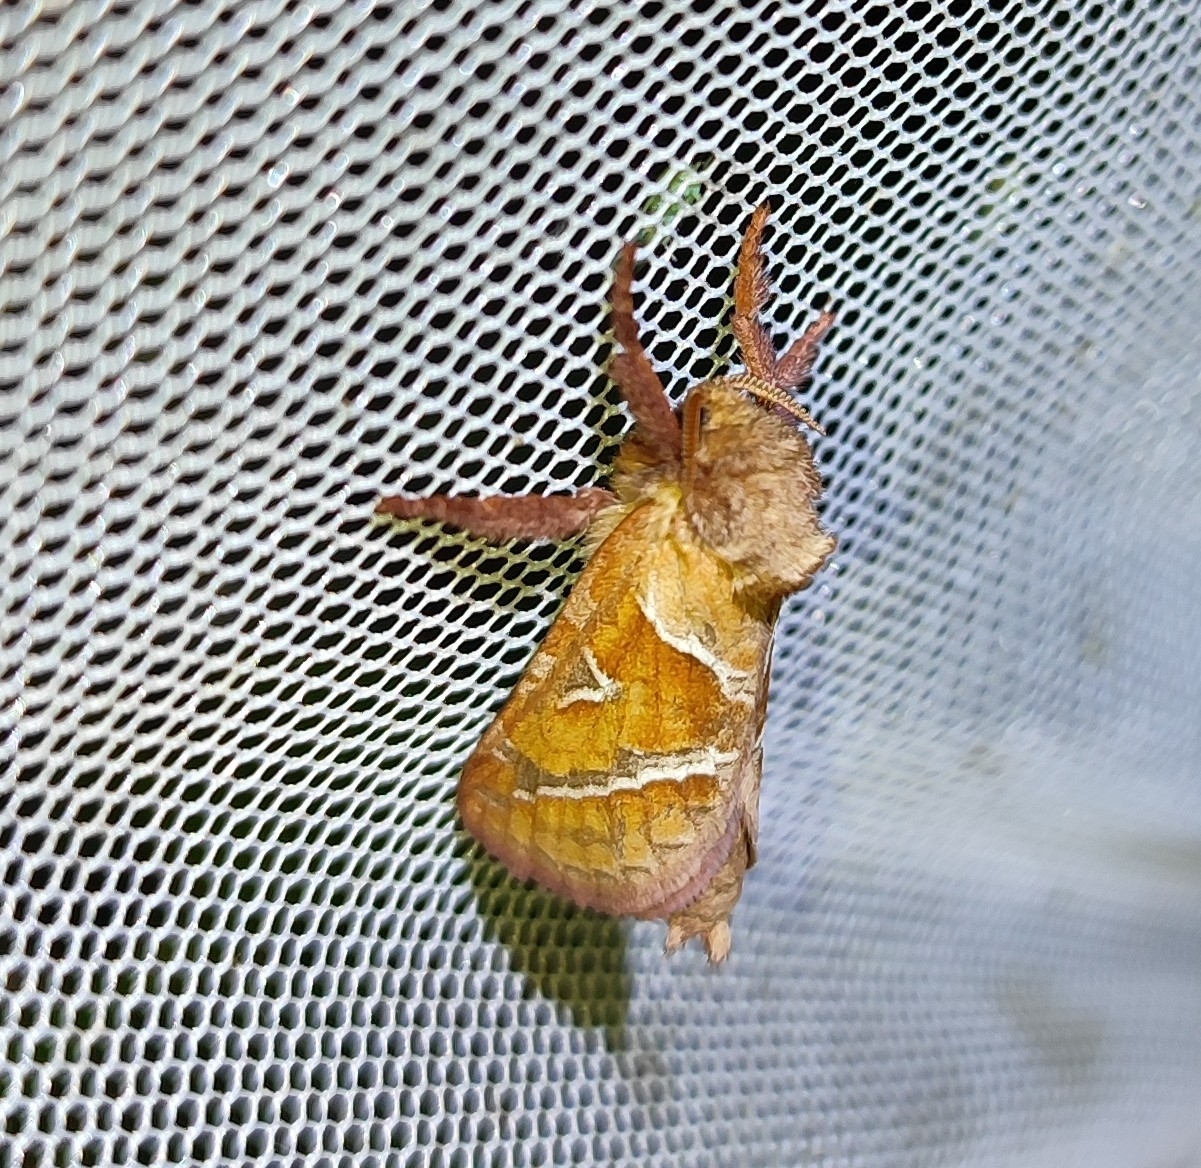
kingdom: Animalia
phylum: Arthropoda
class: Insecta
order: Lepidoptera
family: Hepialidae
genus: Triodia
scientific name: Triodia sylvina
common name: Orange swift
